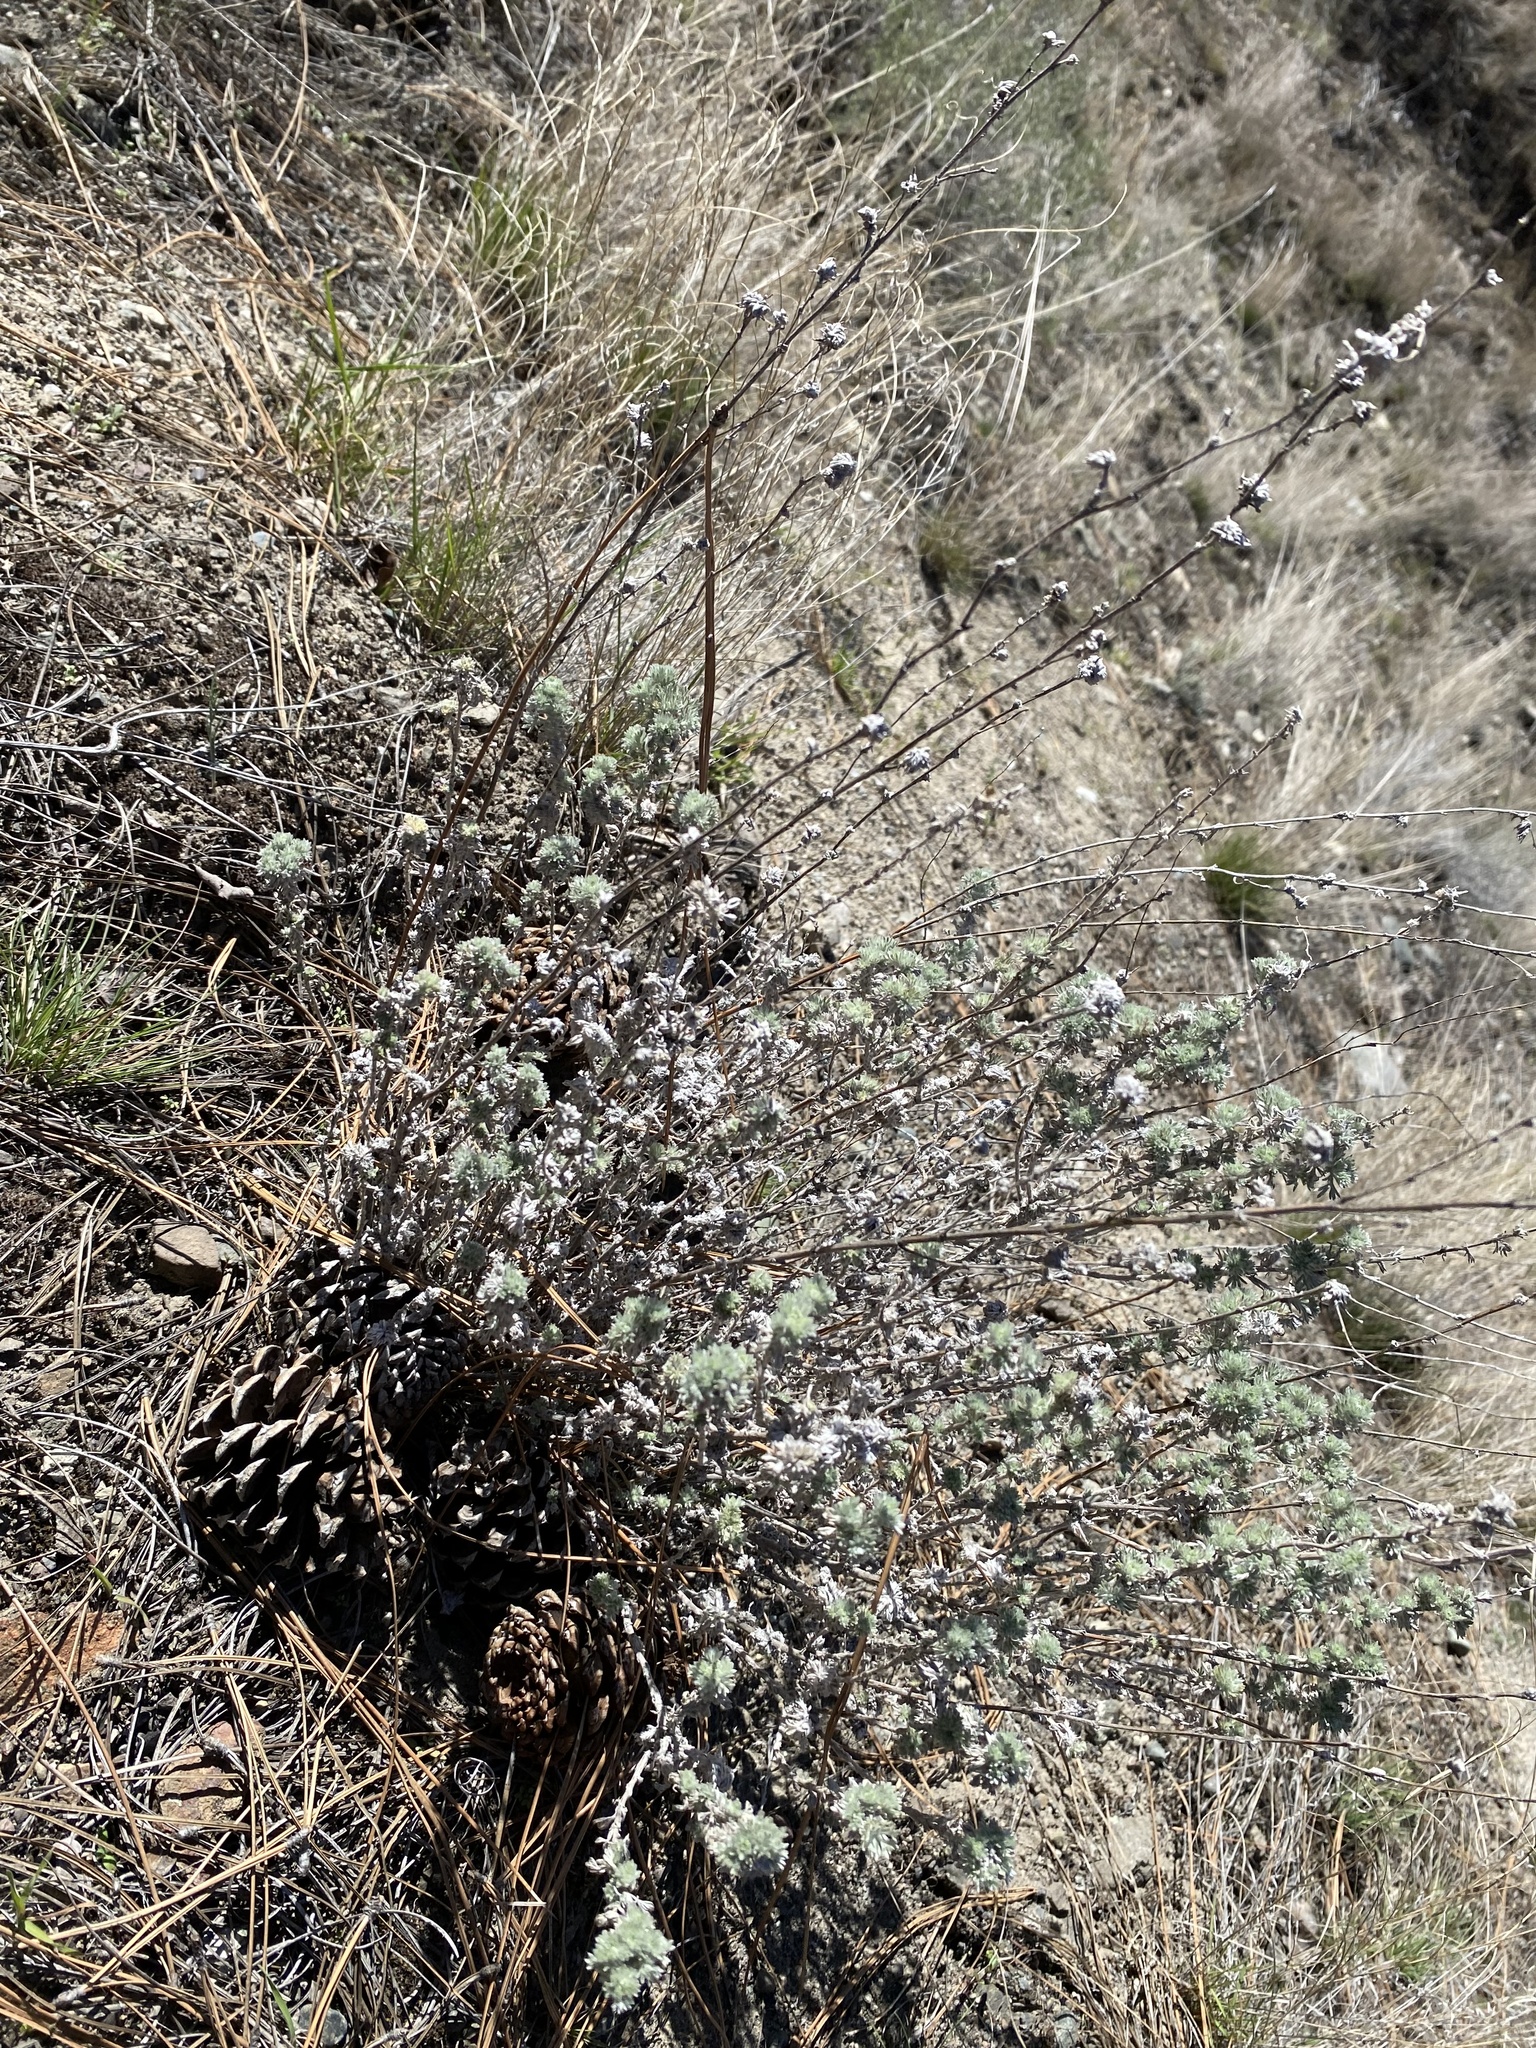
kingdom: Plantae
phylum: Tracheophyta
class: Magnoliopsida
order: Asterales
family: Asteraceae
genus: Artemisia
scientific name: Artemisia frigida
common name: Prairie sagewort
